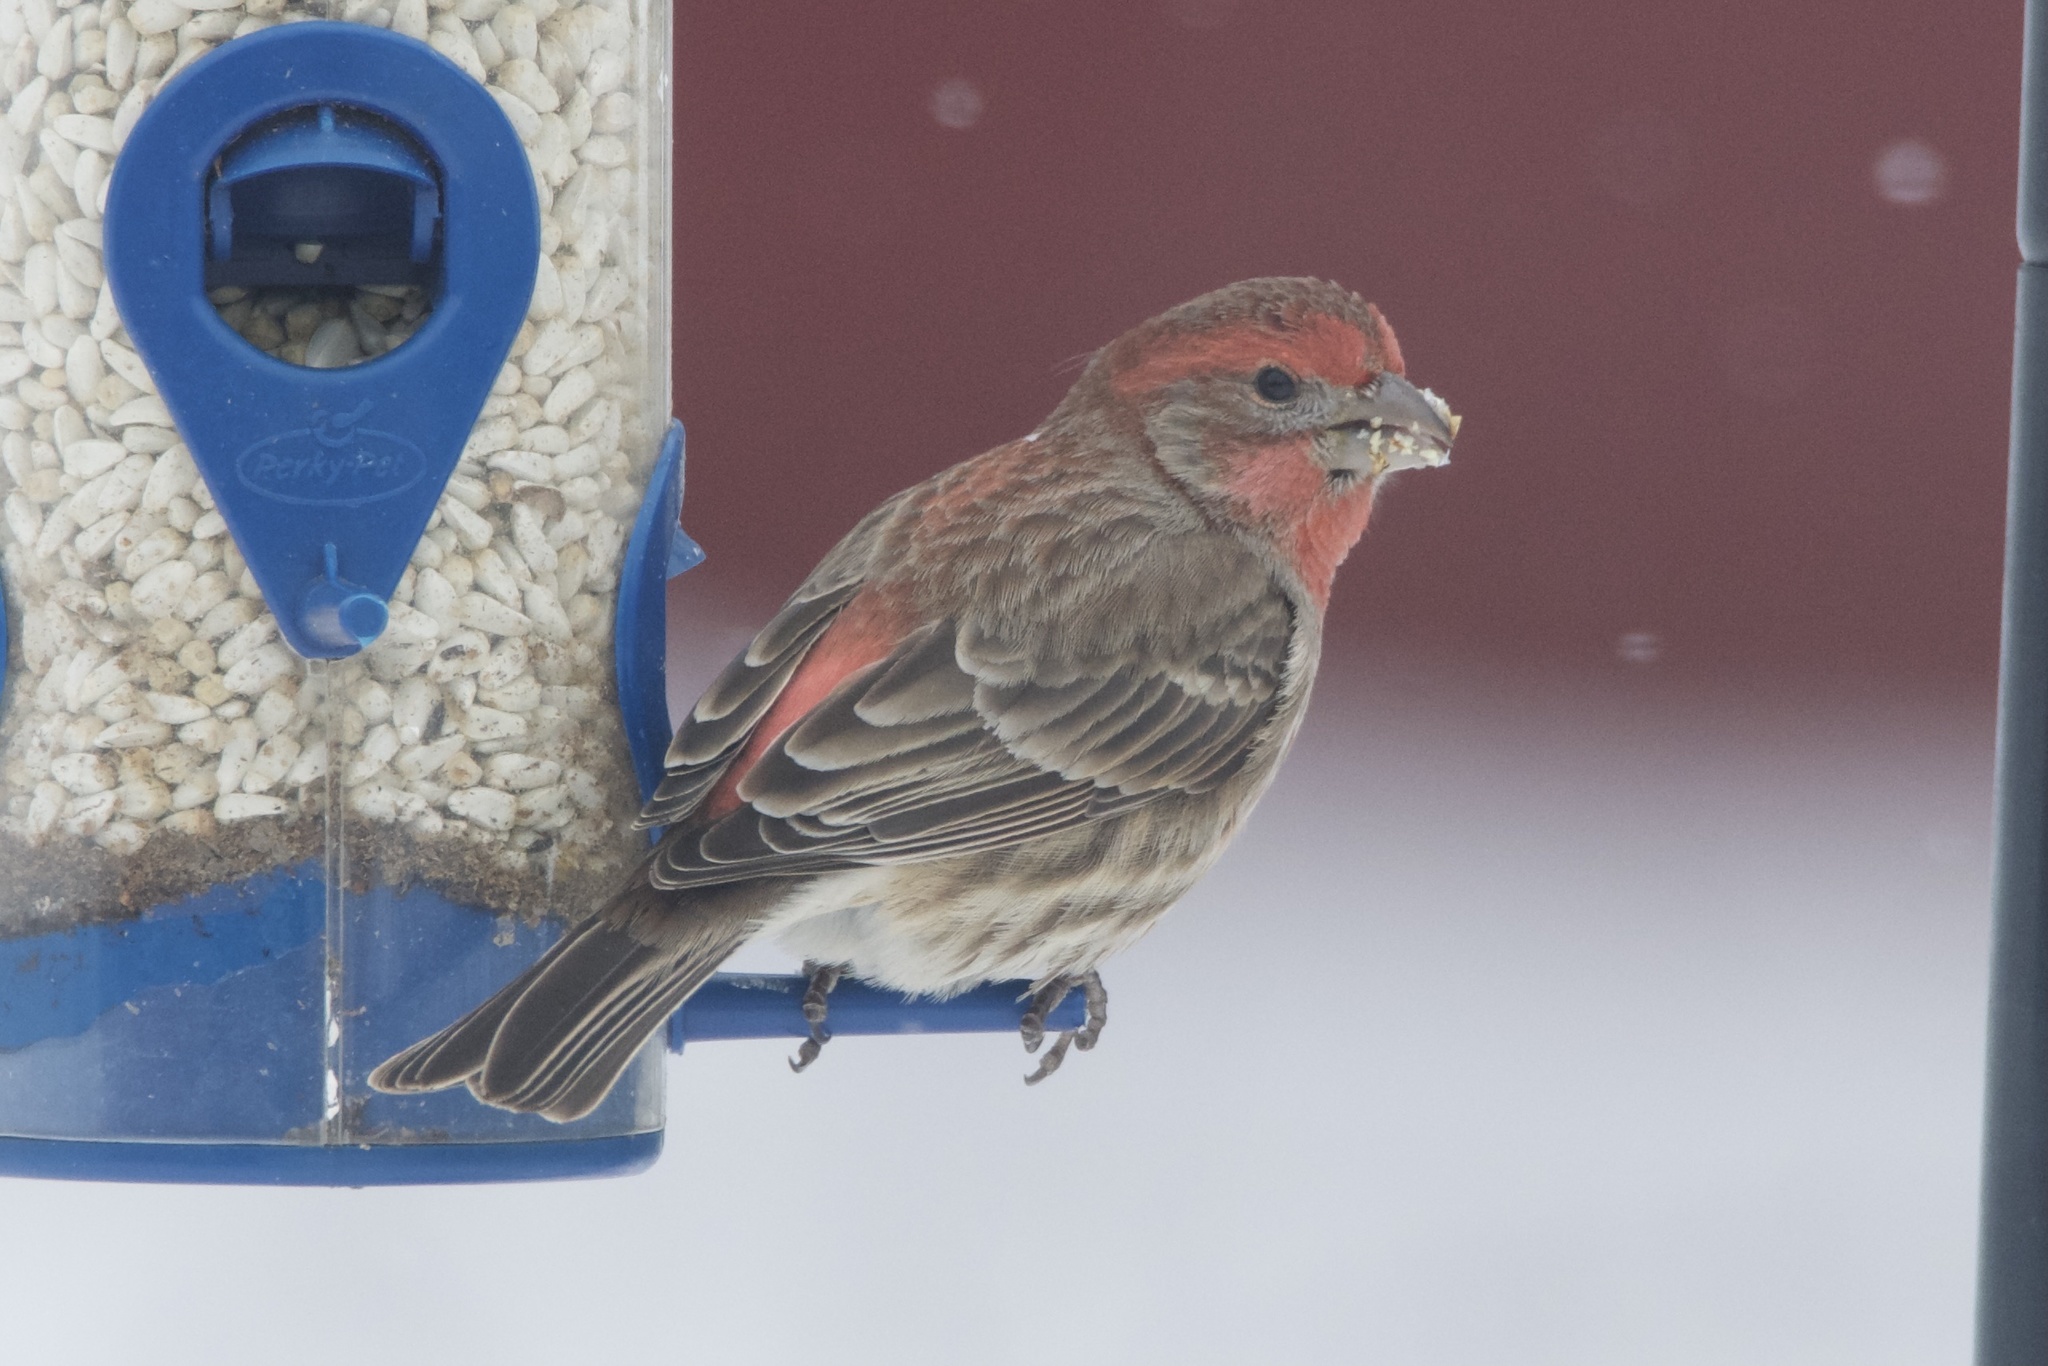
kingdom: Animalia
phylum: Chordata
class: Aves
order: Passeriformes
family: Fringillidae
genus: Haemorhous
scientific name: Haemorhous mexicanus
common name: House finch
